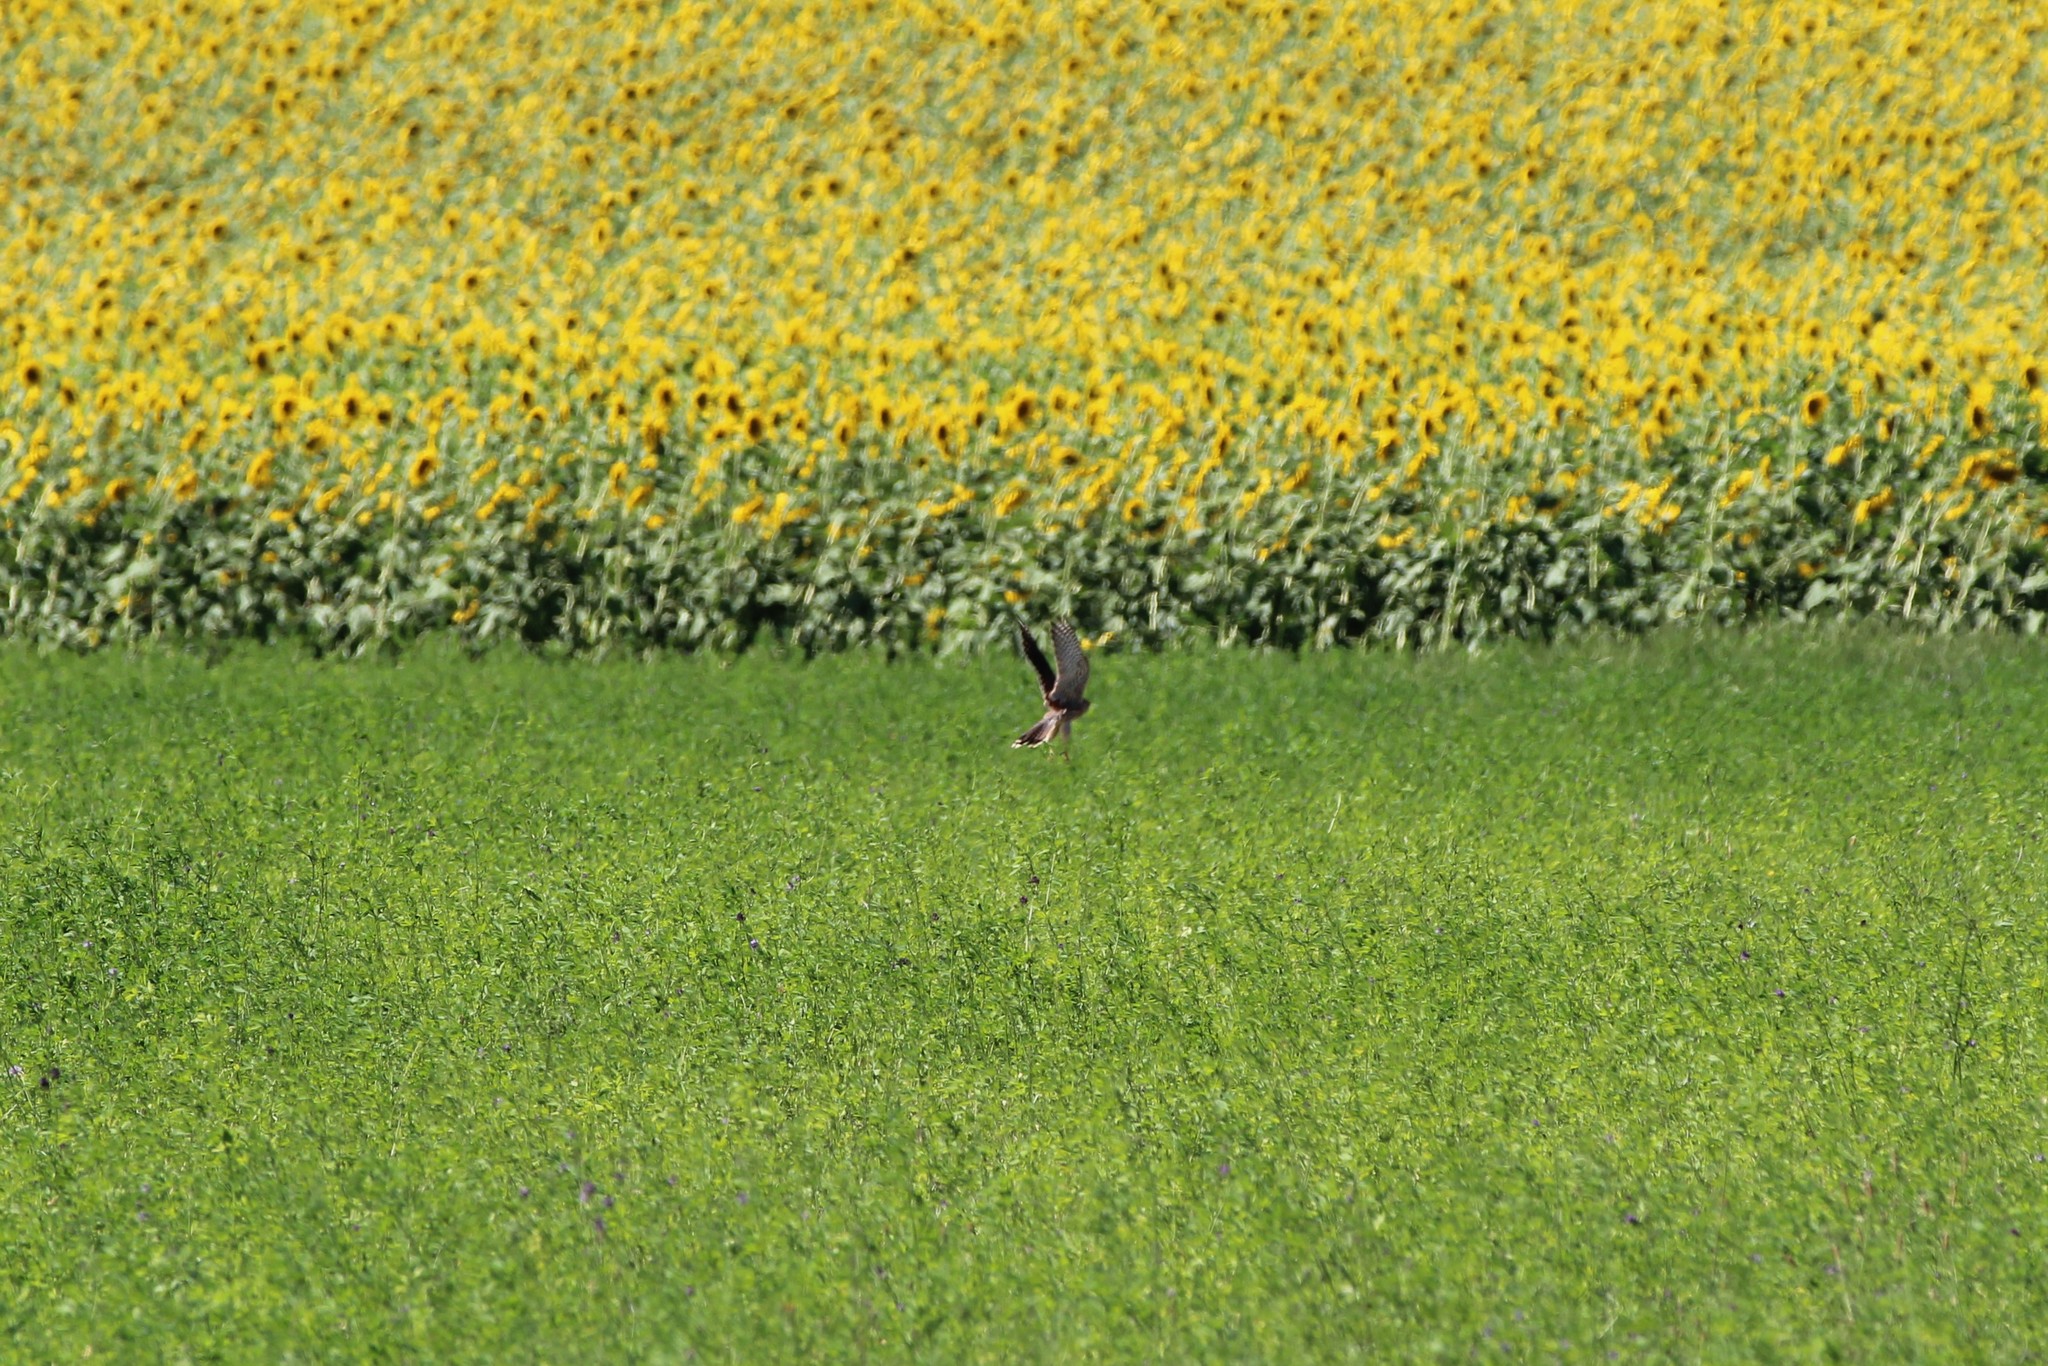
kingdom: Animalia
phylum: Chordata
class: Aves
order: Falconiformes
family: Falconidae
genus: Falco
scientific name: Falco tinnunculus
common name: Common kestrel
